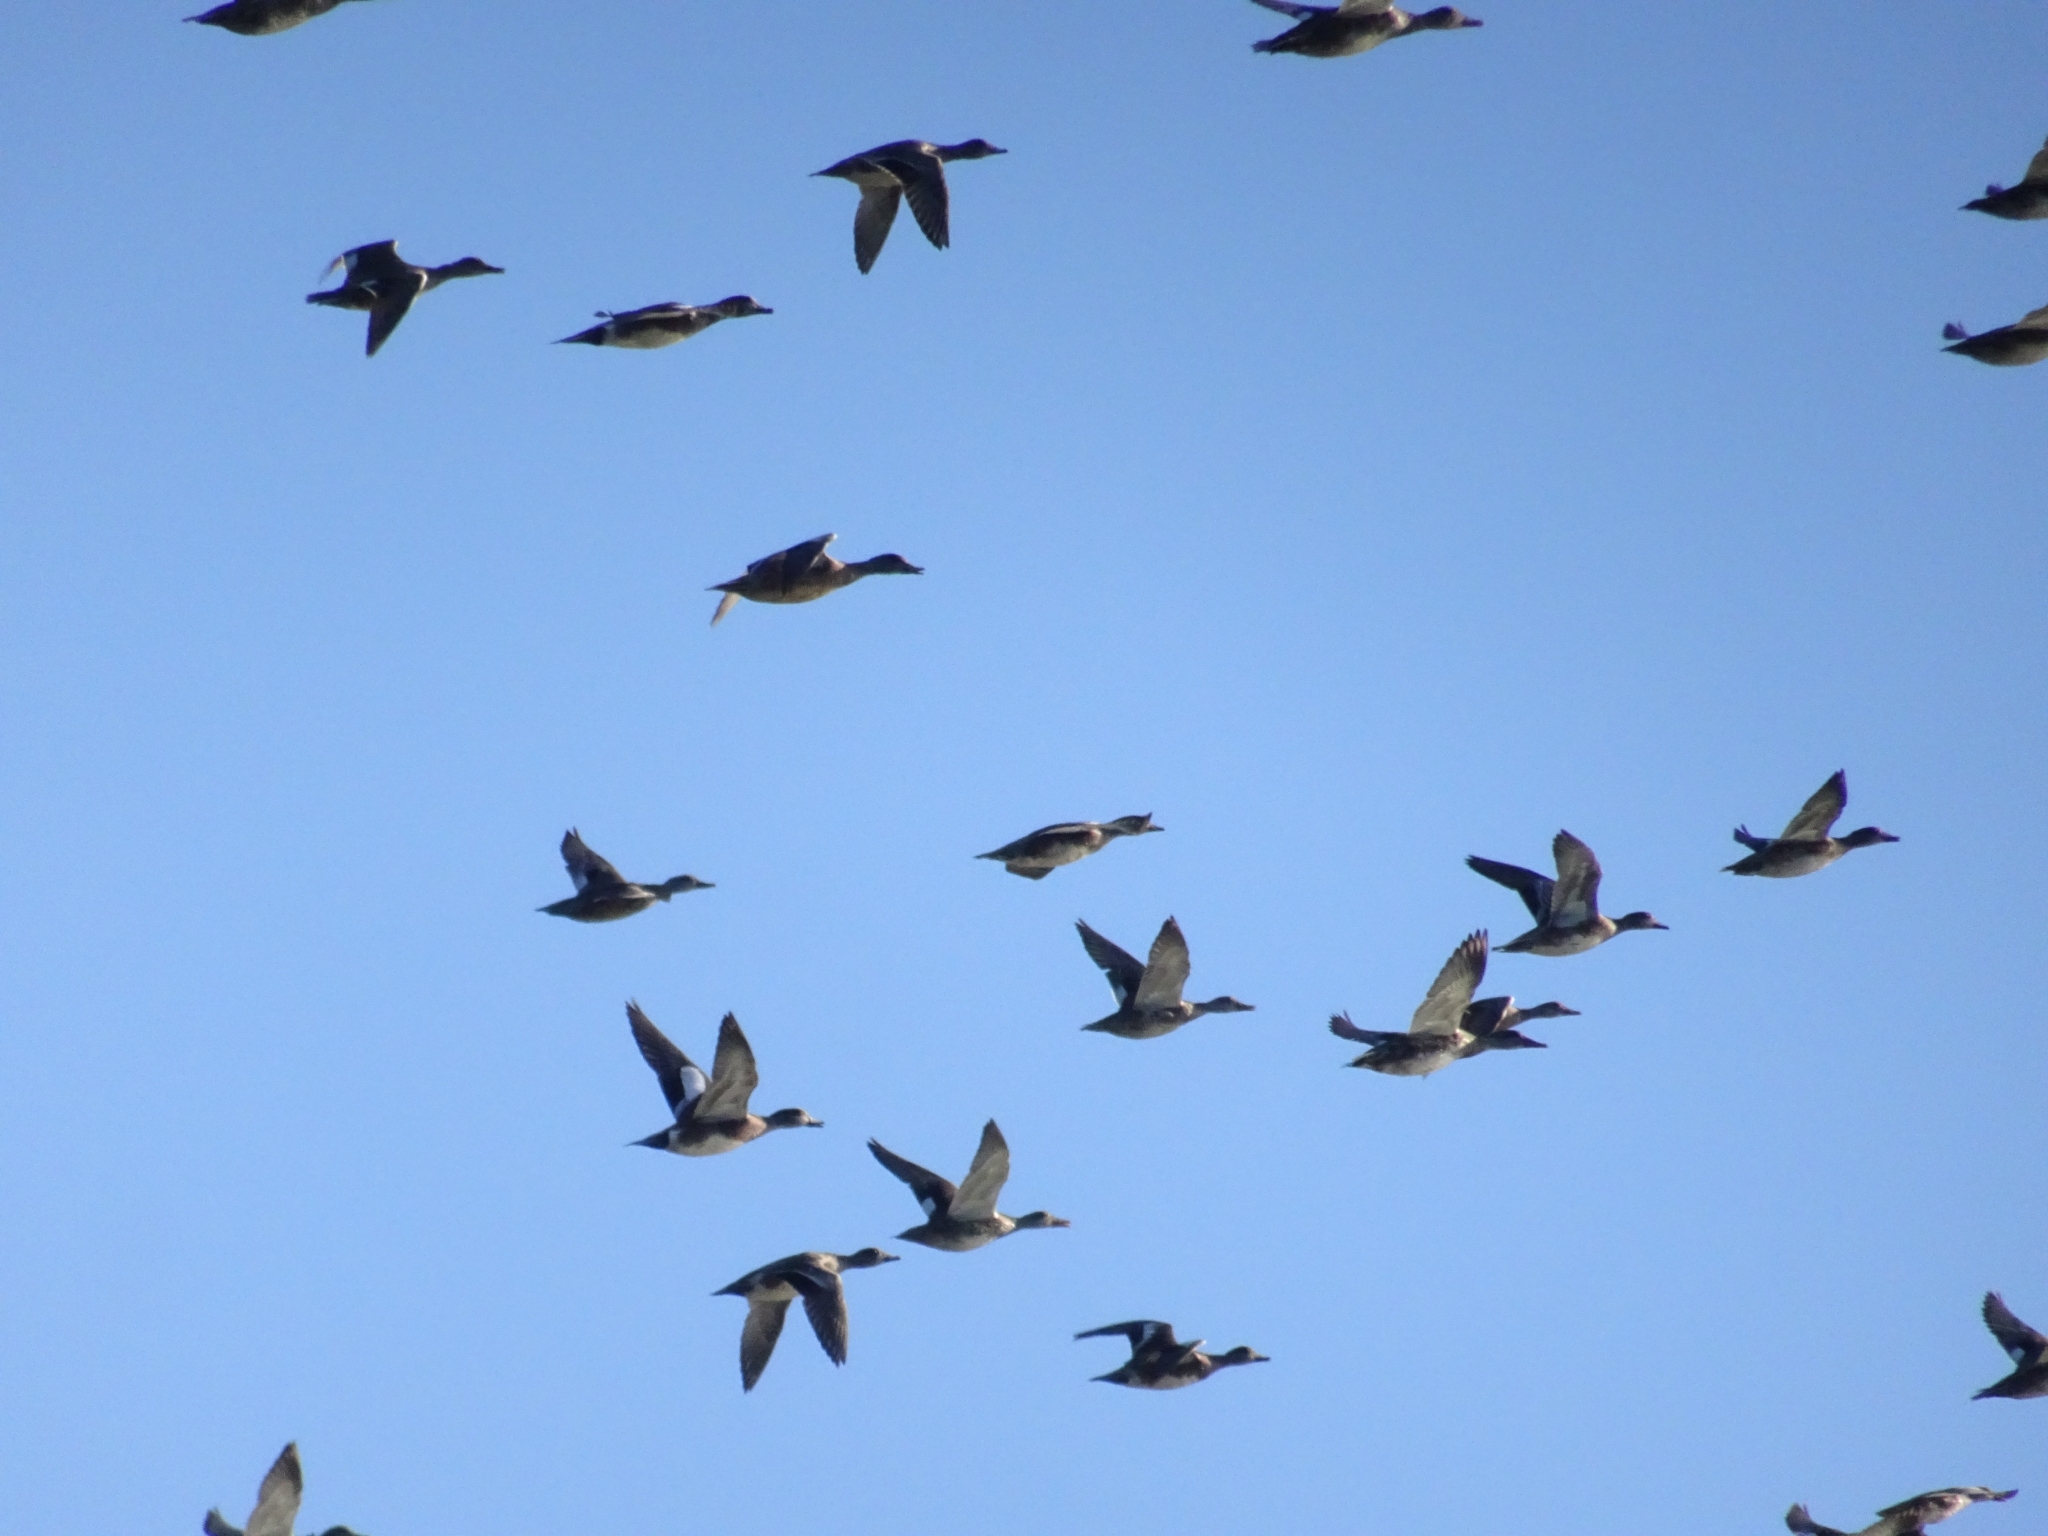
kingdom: Animalia
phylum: Chordata
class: Aves
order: Anseriformes
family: Anatidae
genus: Mareca
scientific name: Mareca strepera
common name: Gadwall
